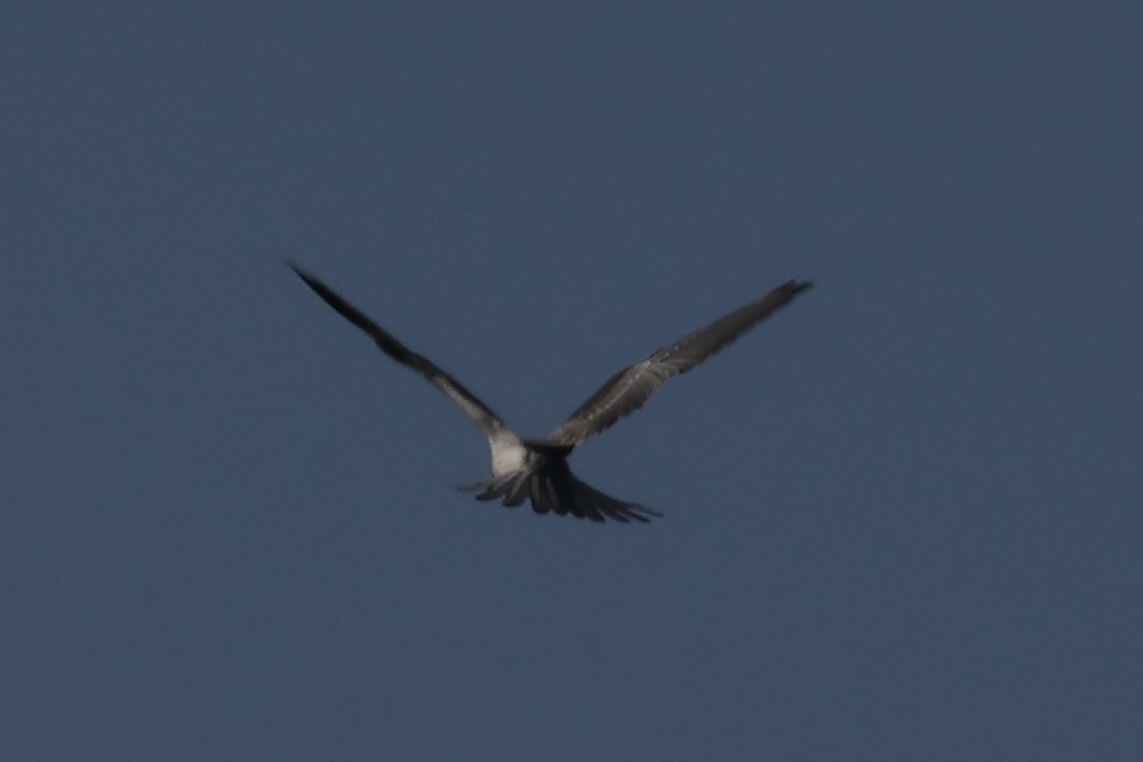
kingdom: Animalia
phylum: Chordata
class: Aves
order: Accipitriformes
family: Accipitridae
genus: Elanus
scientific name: Elanus leucurus
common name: White-tailed kite
